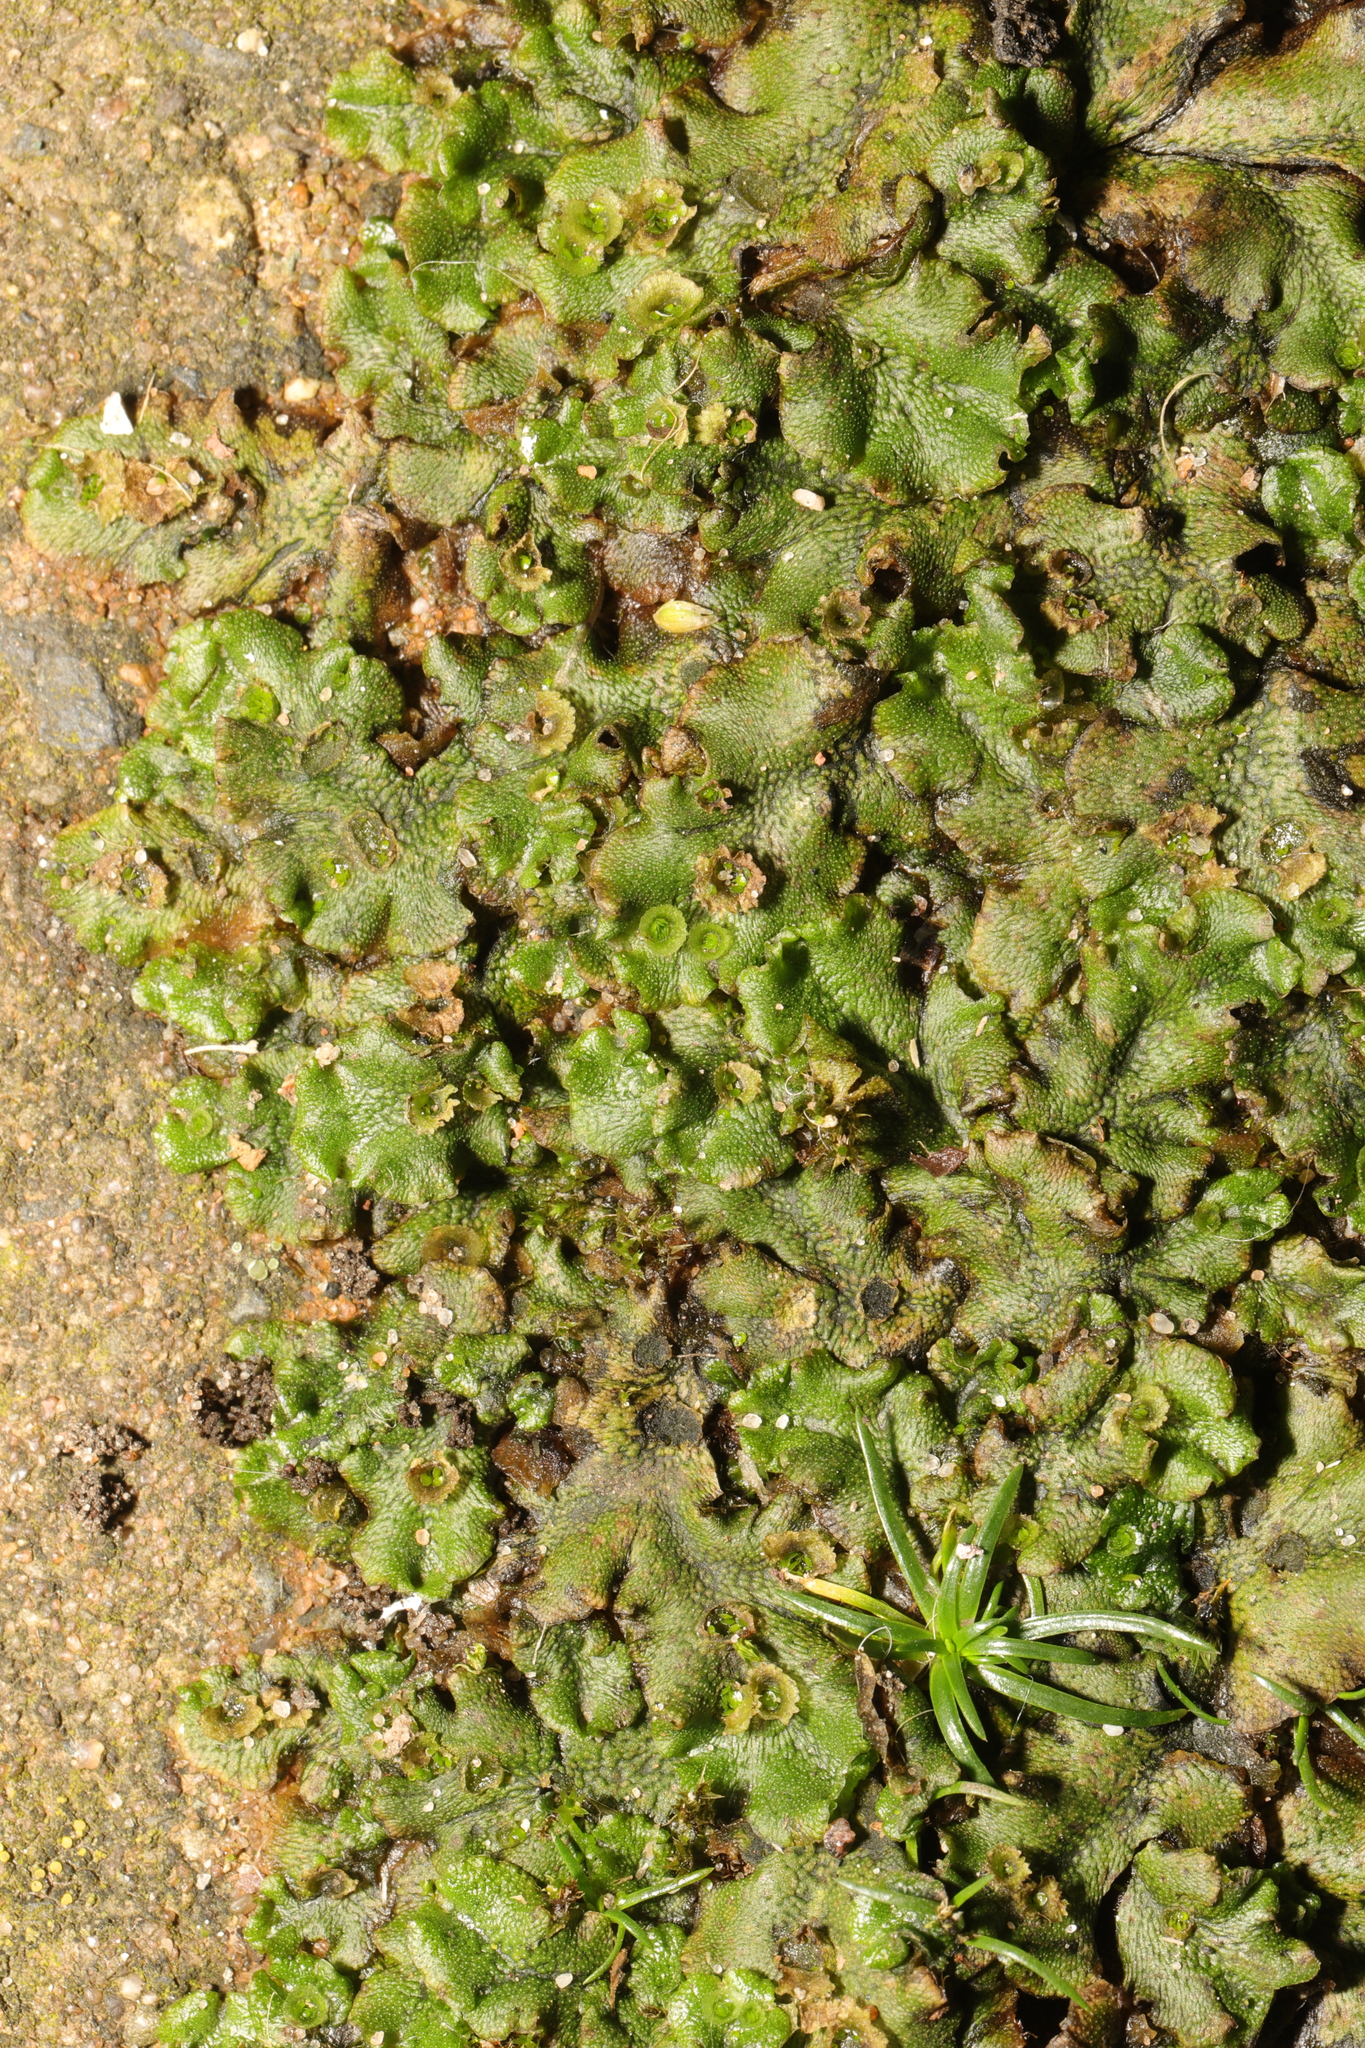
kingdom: Plantae
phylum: Marchantiophyta
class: Marchantiopsida
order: Marchantiales
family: Marchantiaceae
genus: Marchantia
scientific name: Marchantia polymorpha
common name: Common liverwort
